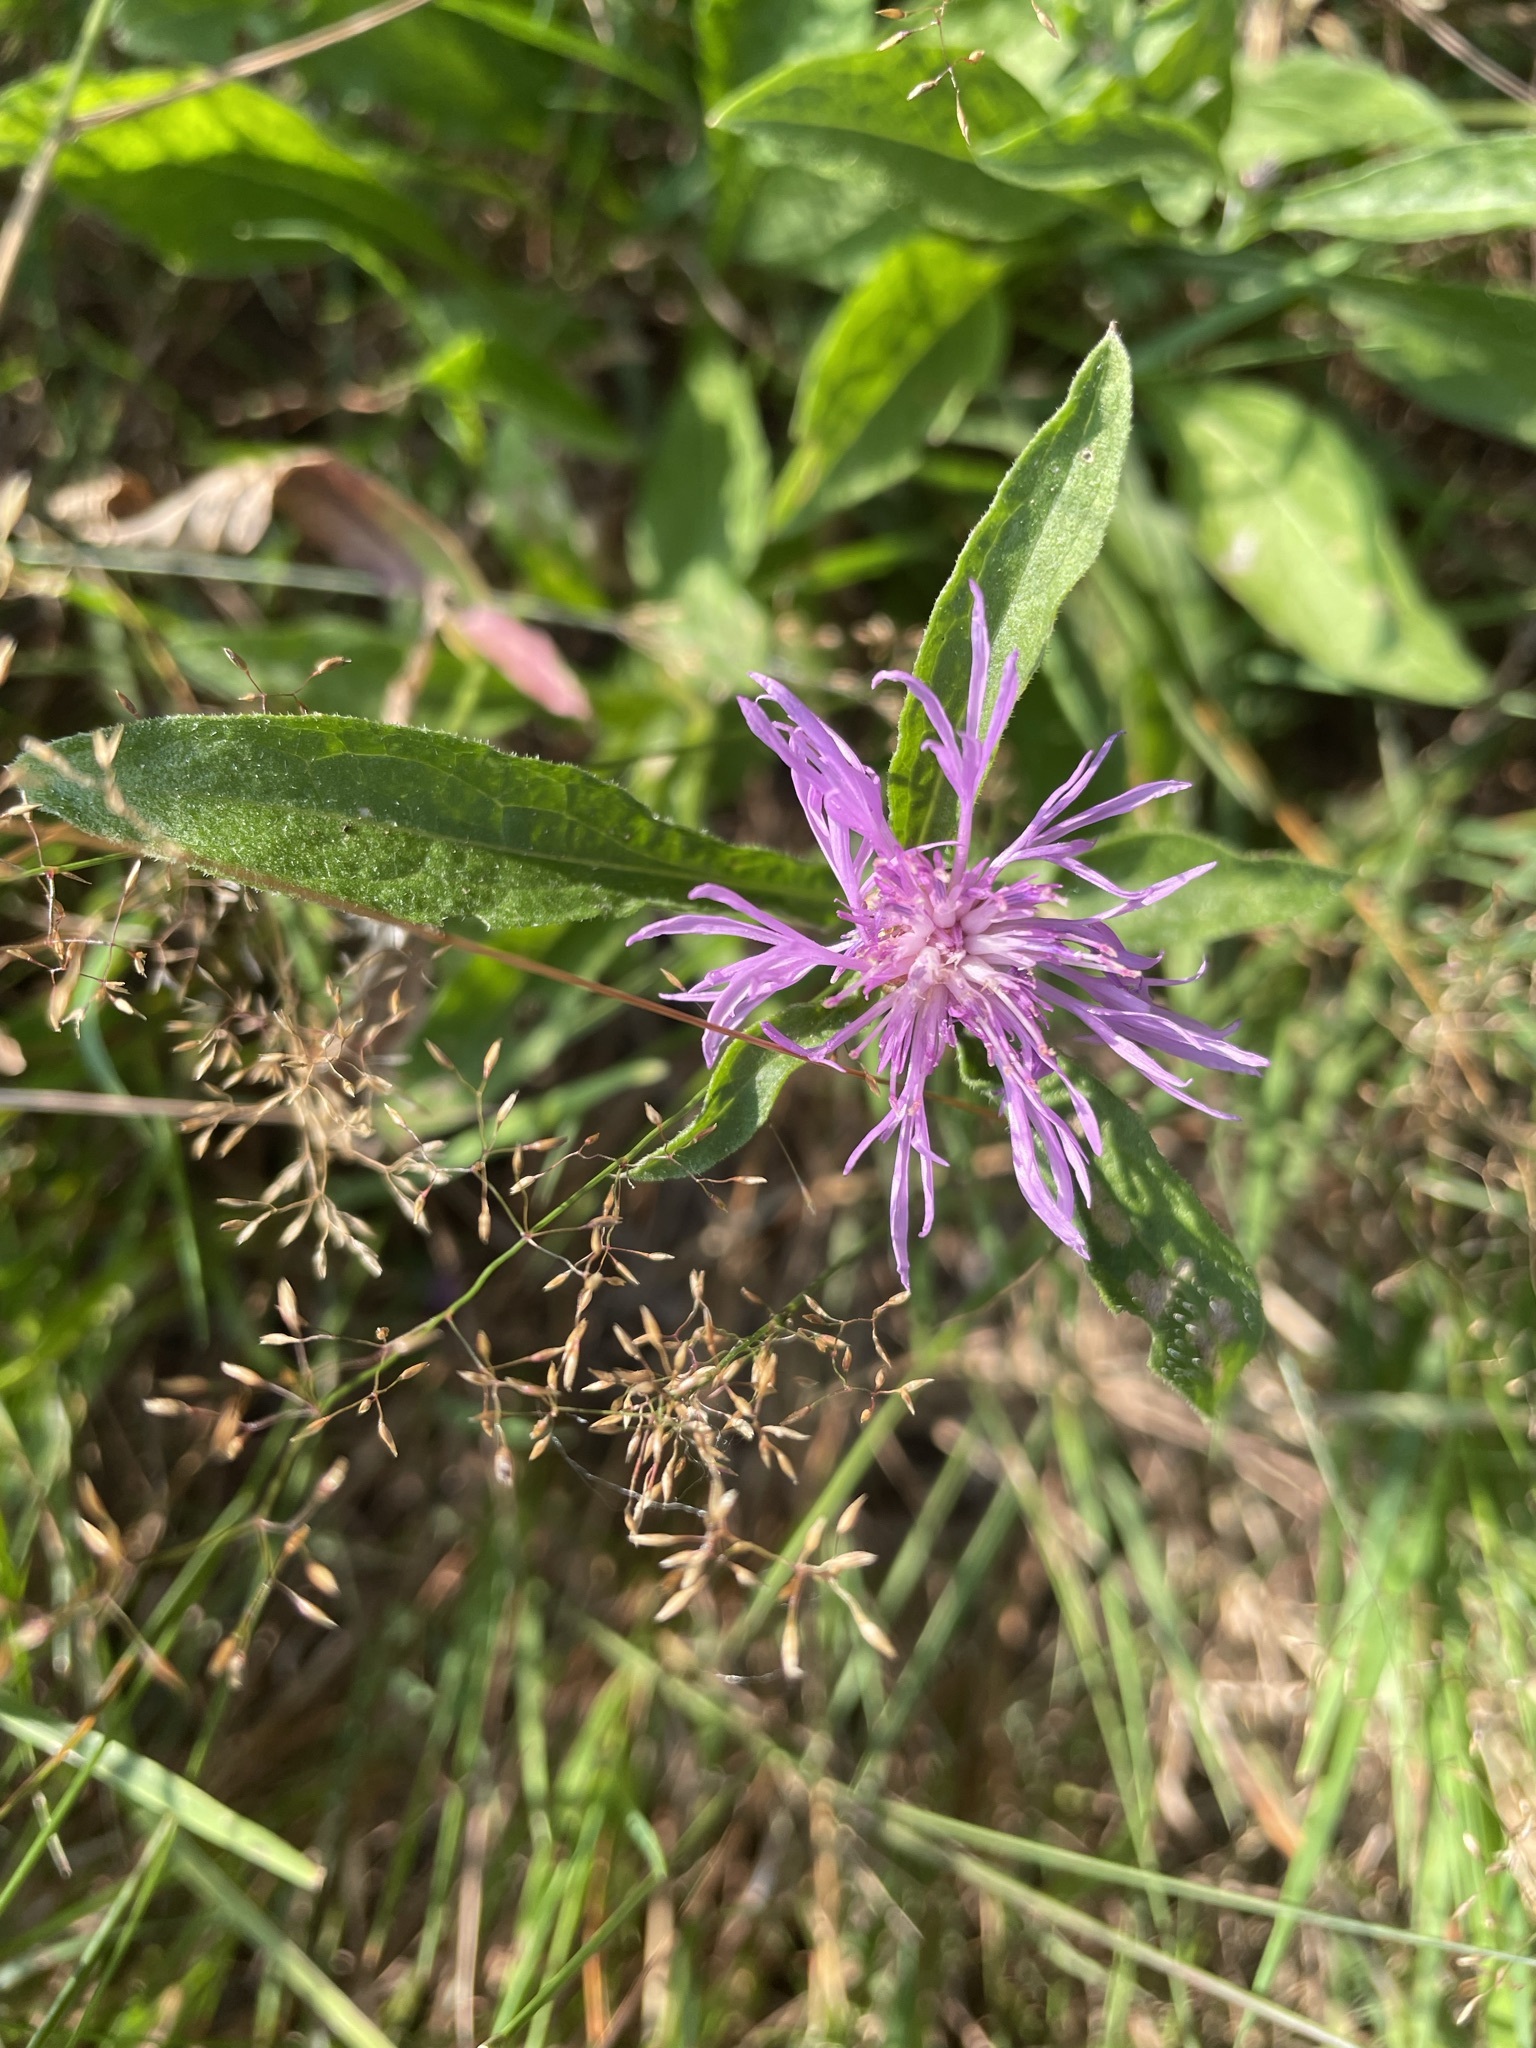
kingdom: Plantae
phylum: Tracheophyta
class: Magnoliopsida
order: Asterales
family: Asteraceae
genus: Centaurea
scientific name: Centaurea jacea
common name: Brown knapweed
